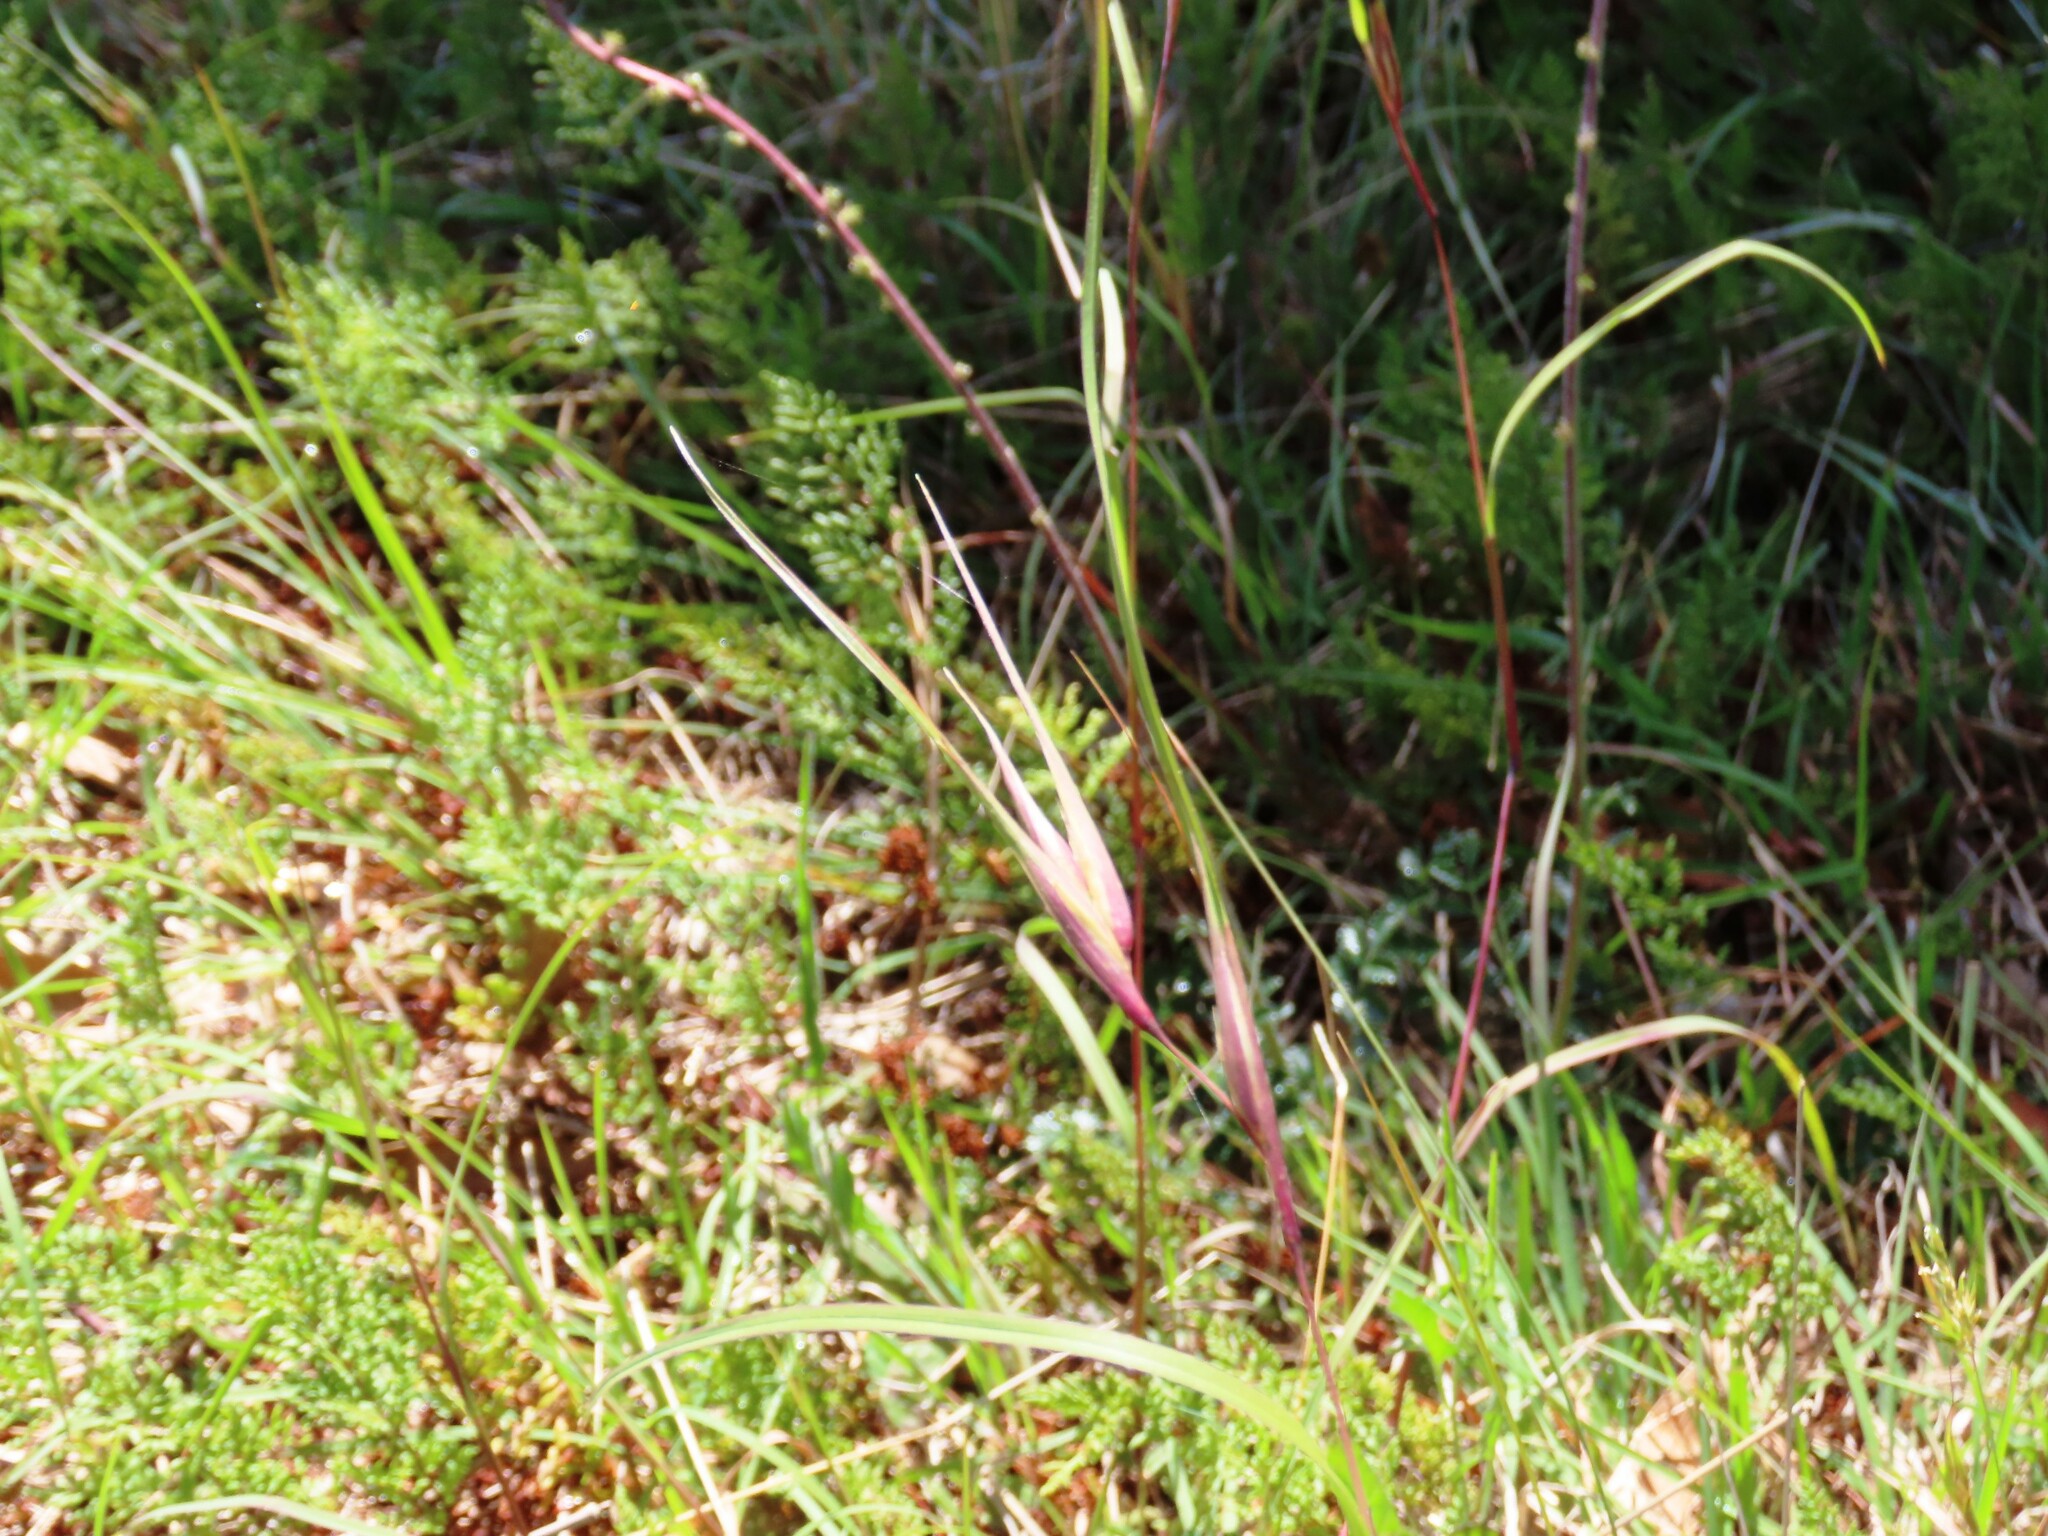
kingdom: Plantae
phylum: Tracheophyta
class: Liliopsida
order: Poales
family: Poaceae
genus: Themeda
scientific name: Themeda triandra
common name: Kangaroo grass
